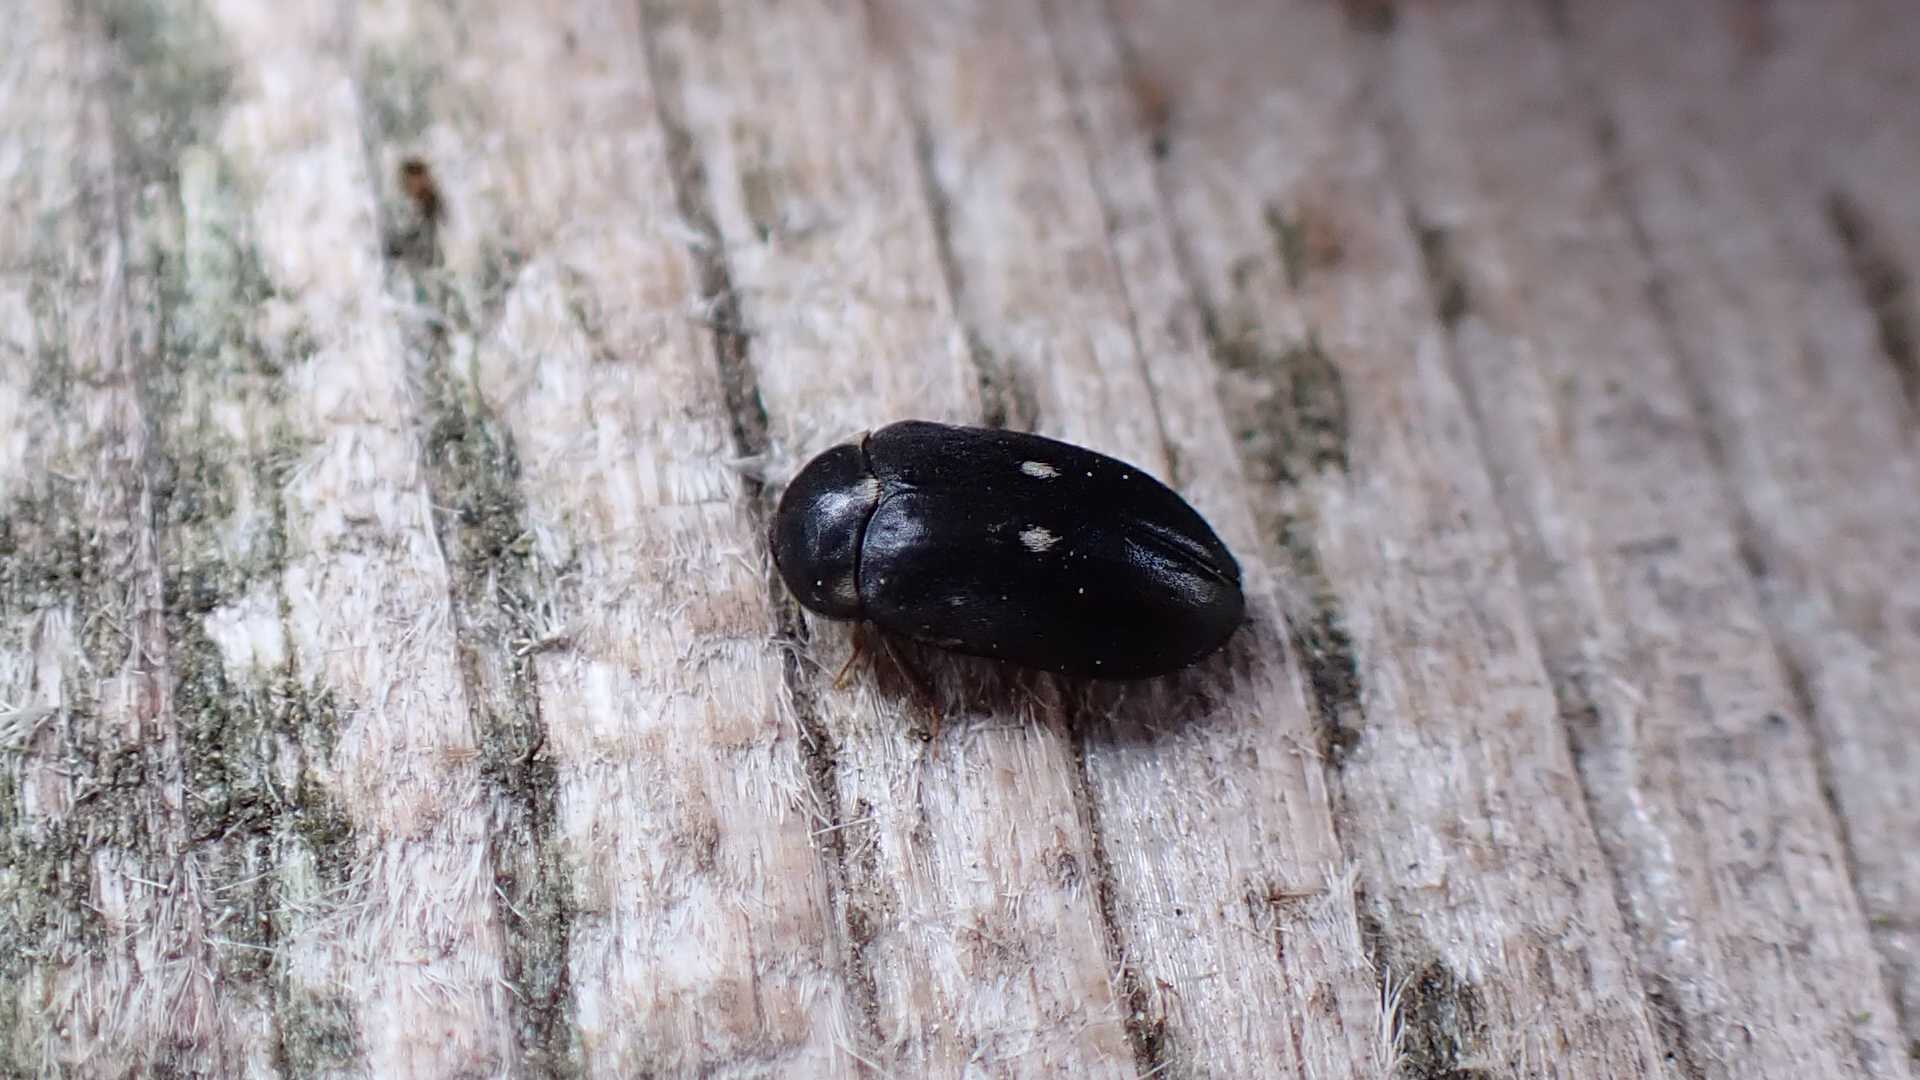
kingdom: Animalia
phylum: Arthropoda
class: Insecta
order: Coleoptera
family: Dermestidae
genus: Attagenus
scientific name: Attagenus pellio
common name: Two-spotted carpet beetle
